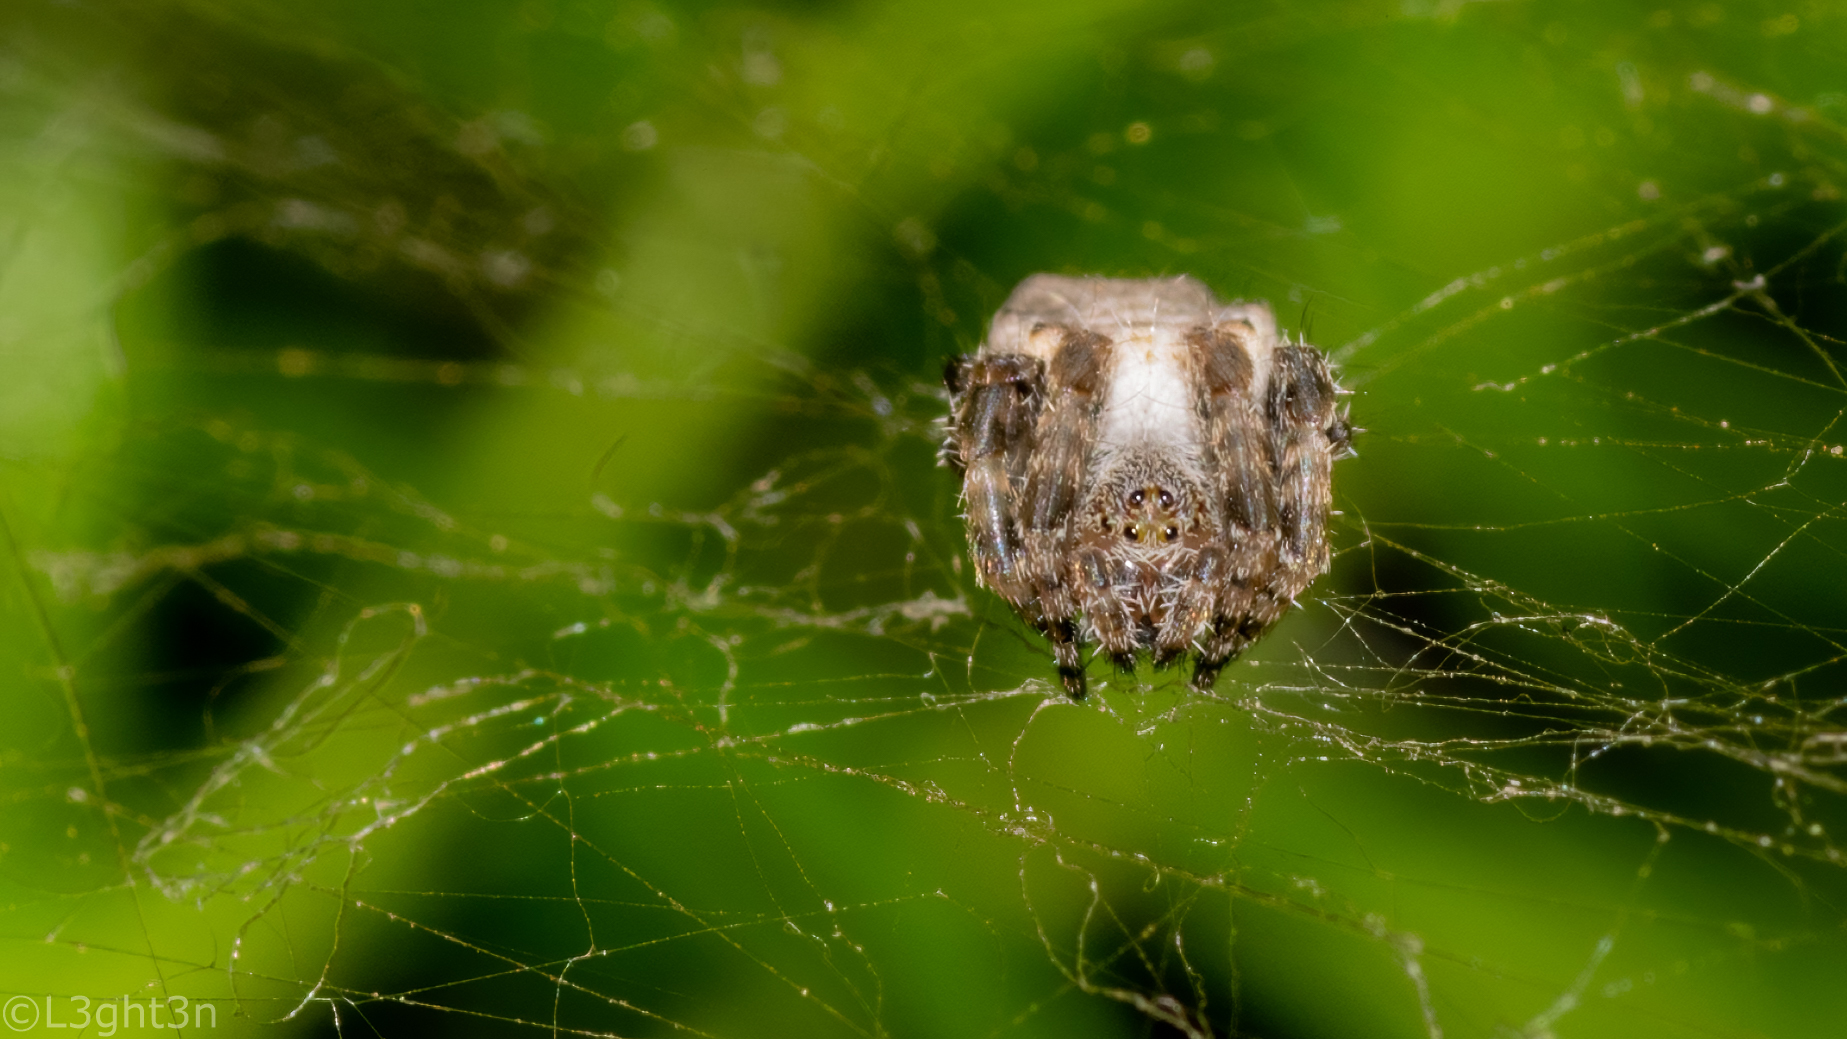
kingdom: Animalia
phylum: Arthropoda
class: Arachnida
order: Araneae
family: Araneidae
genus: Cyrtophora
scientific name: Cyrtophora citricola
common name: Orb weavers
